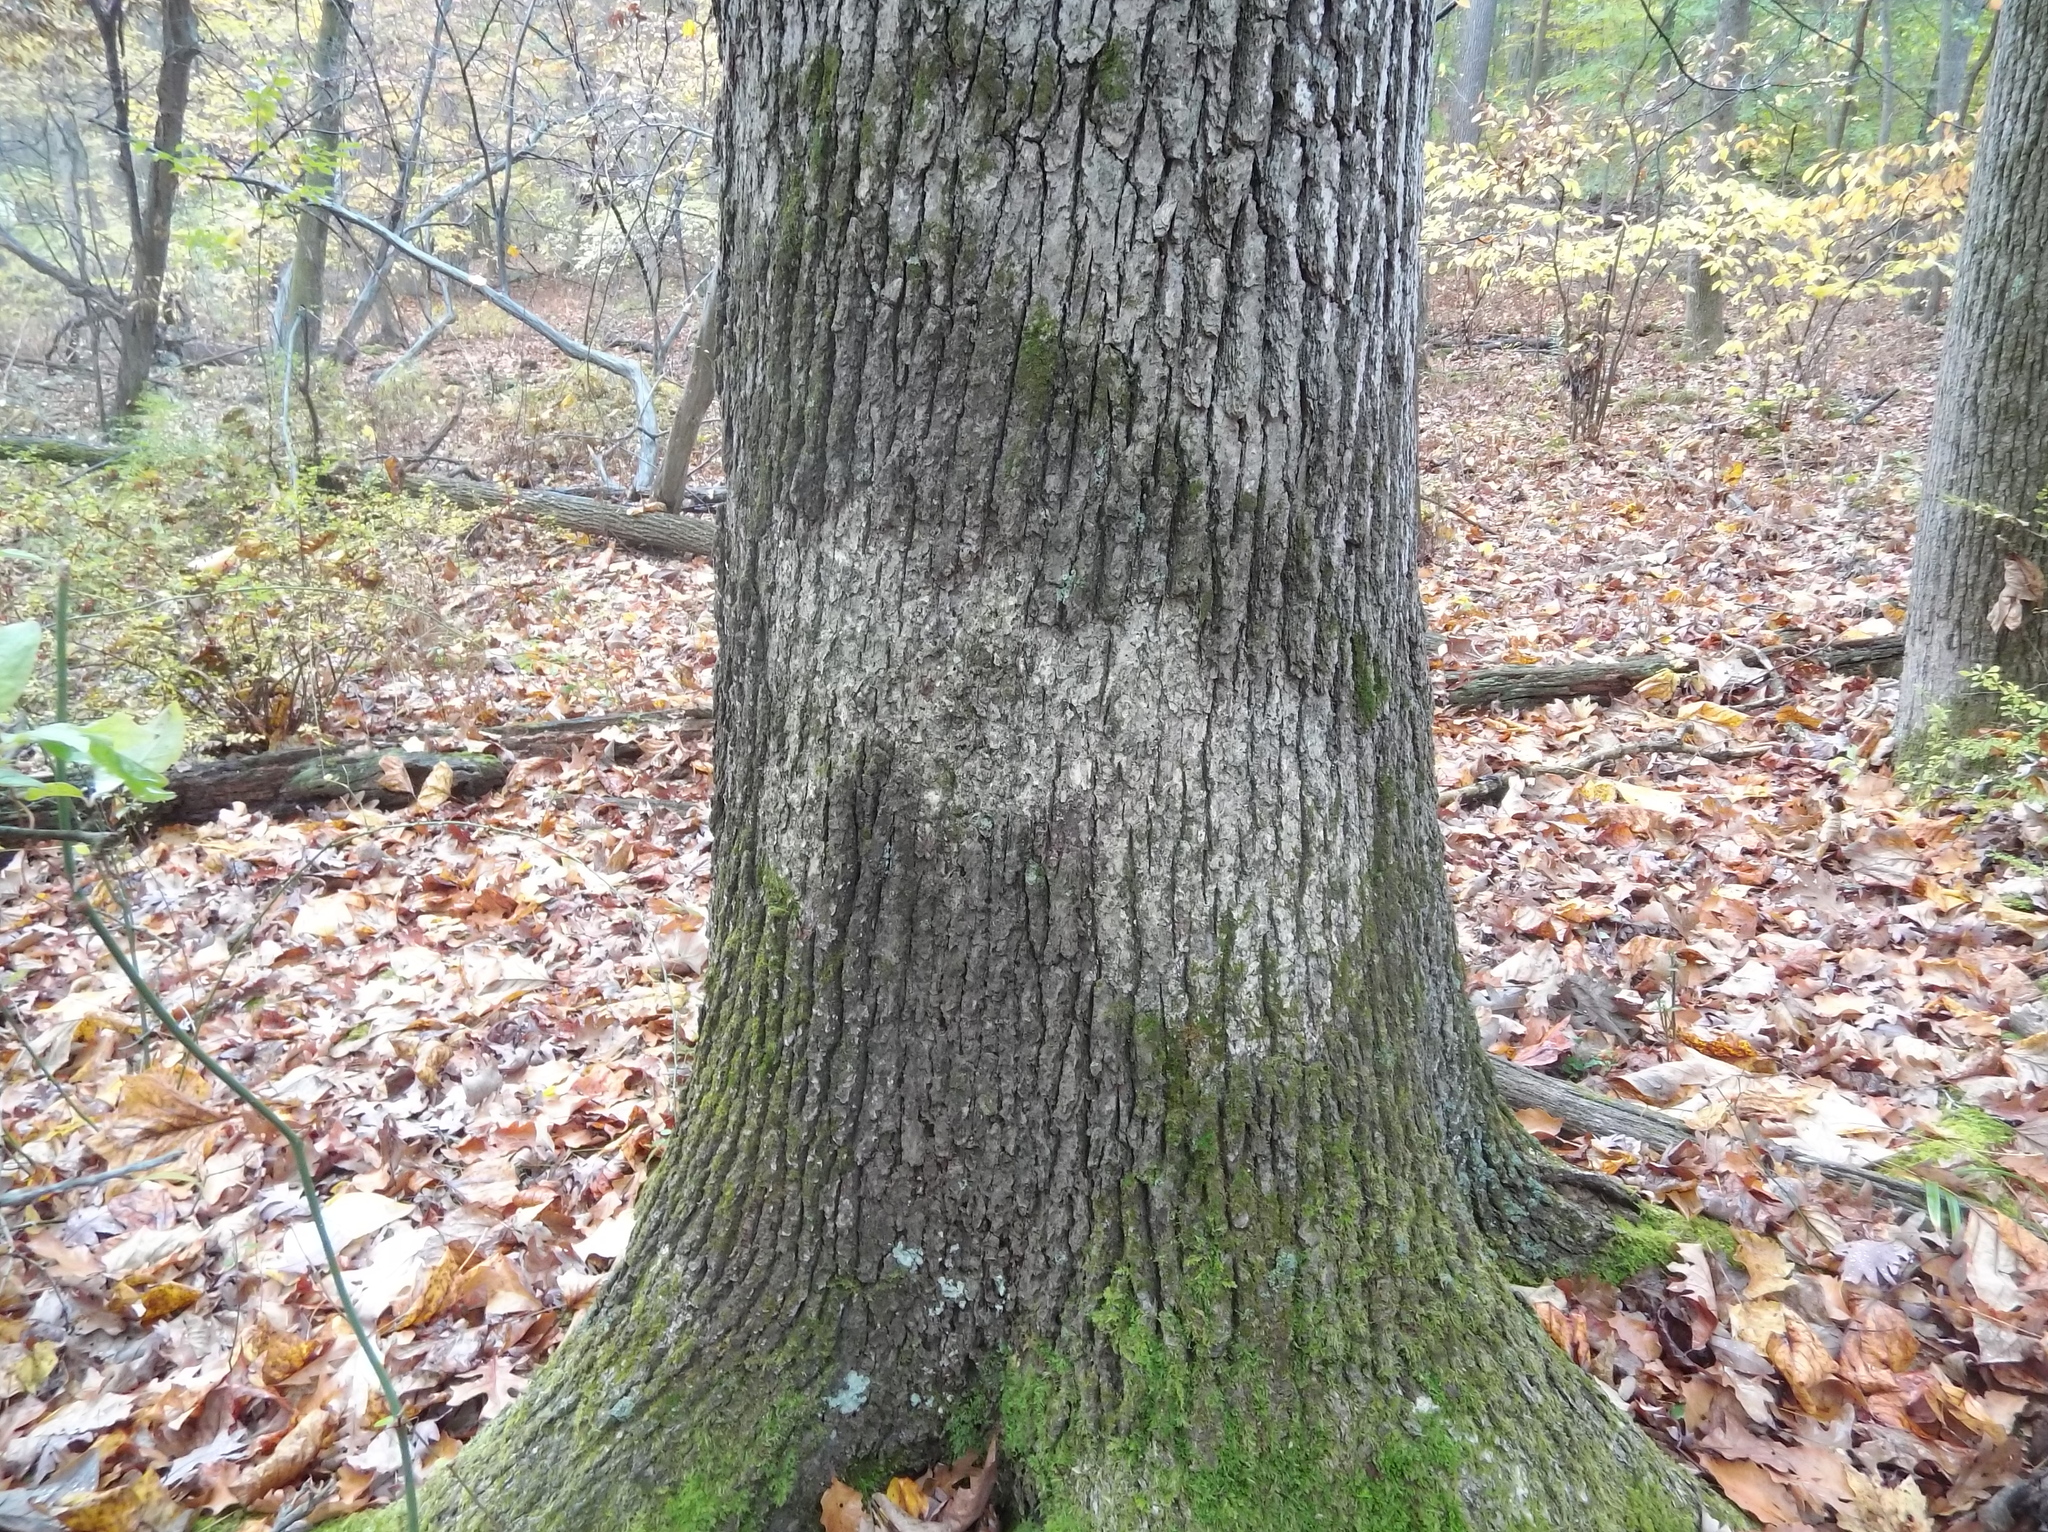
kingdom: Fungi
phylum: Basidiomycota
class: Agaricomycetes
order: Russulales
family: Stereaceae
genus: Acanthophysium
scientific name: Acanthophysium oakesii
